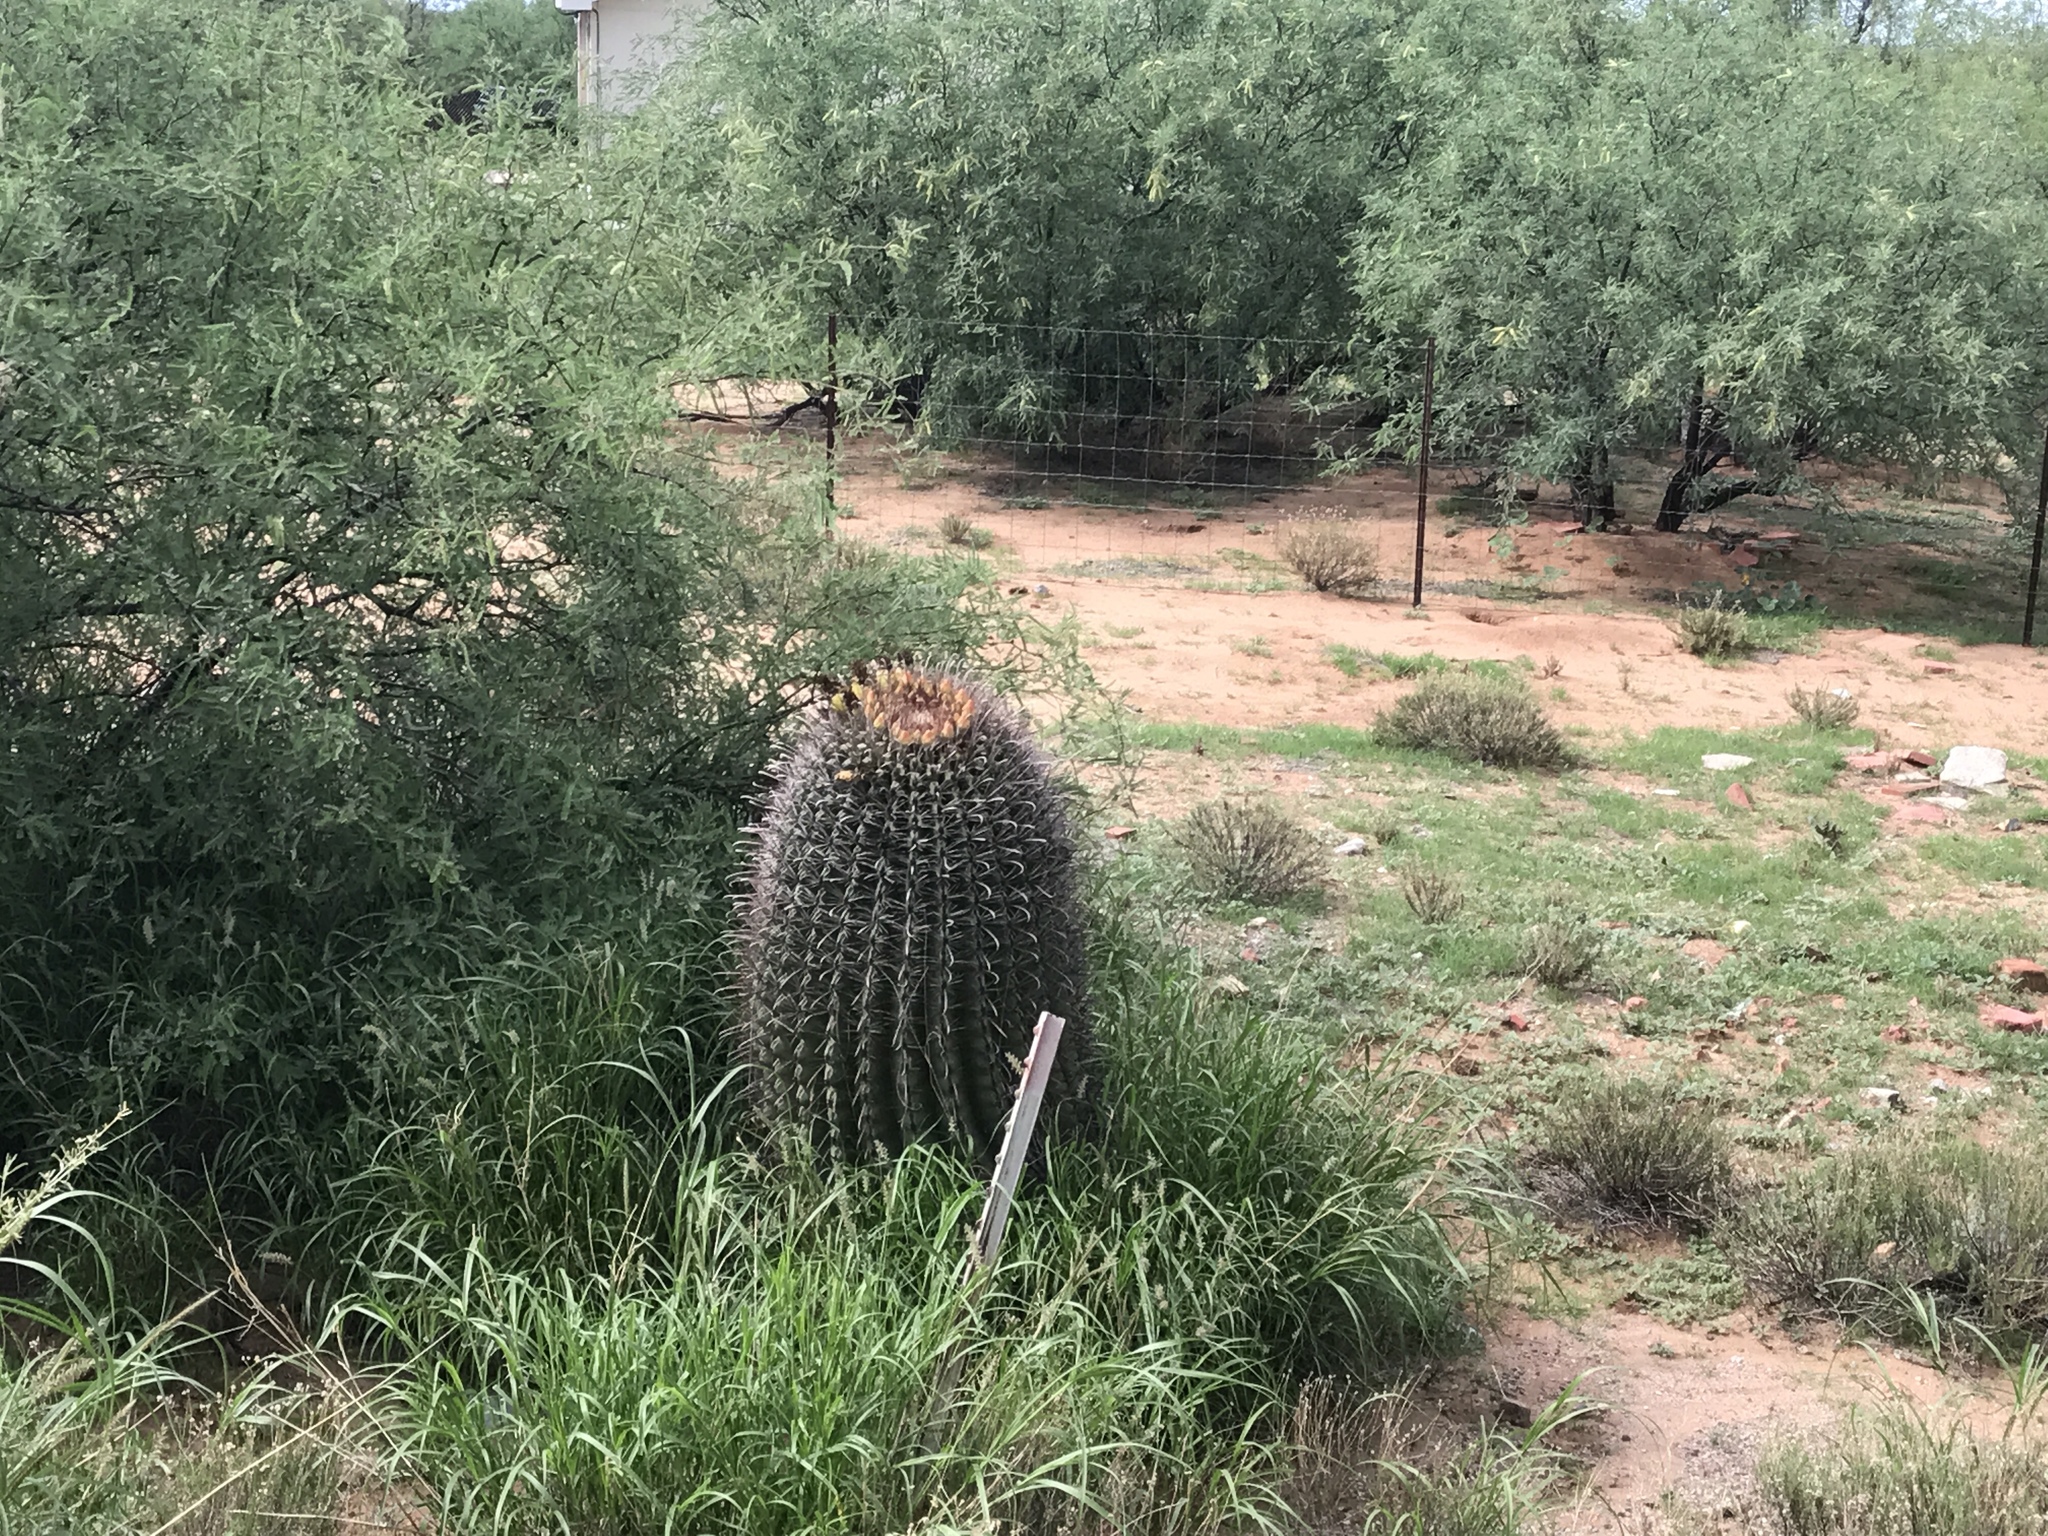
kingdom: Plantae
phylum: Tracheophyta
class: Magnoliopsida
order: Caryophyllales
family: Cactaceae
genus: Ferocactus
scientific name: Ferocactus wislizeni
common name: Candy barrel cactus
